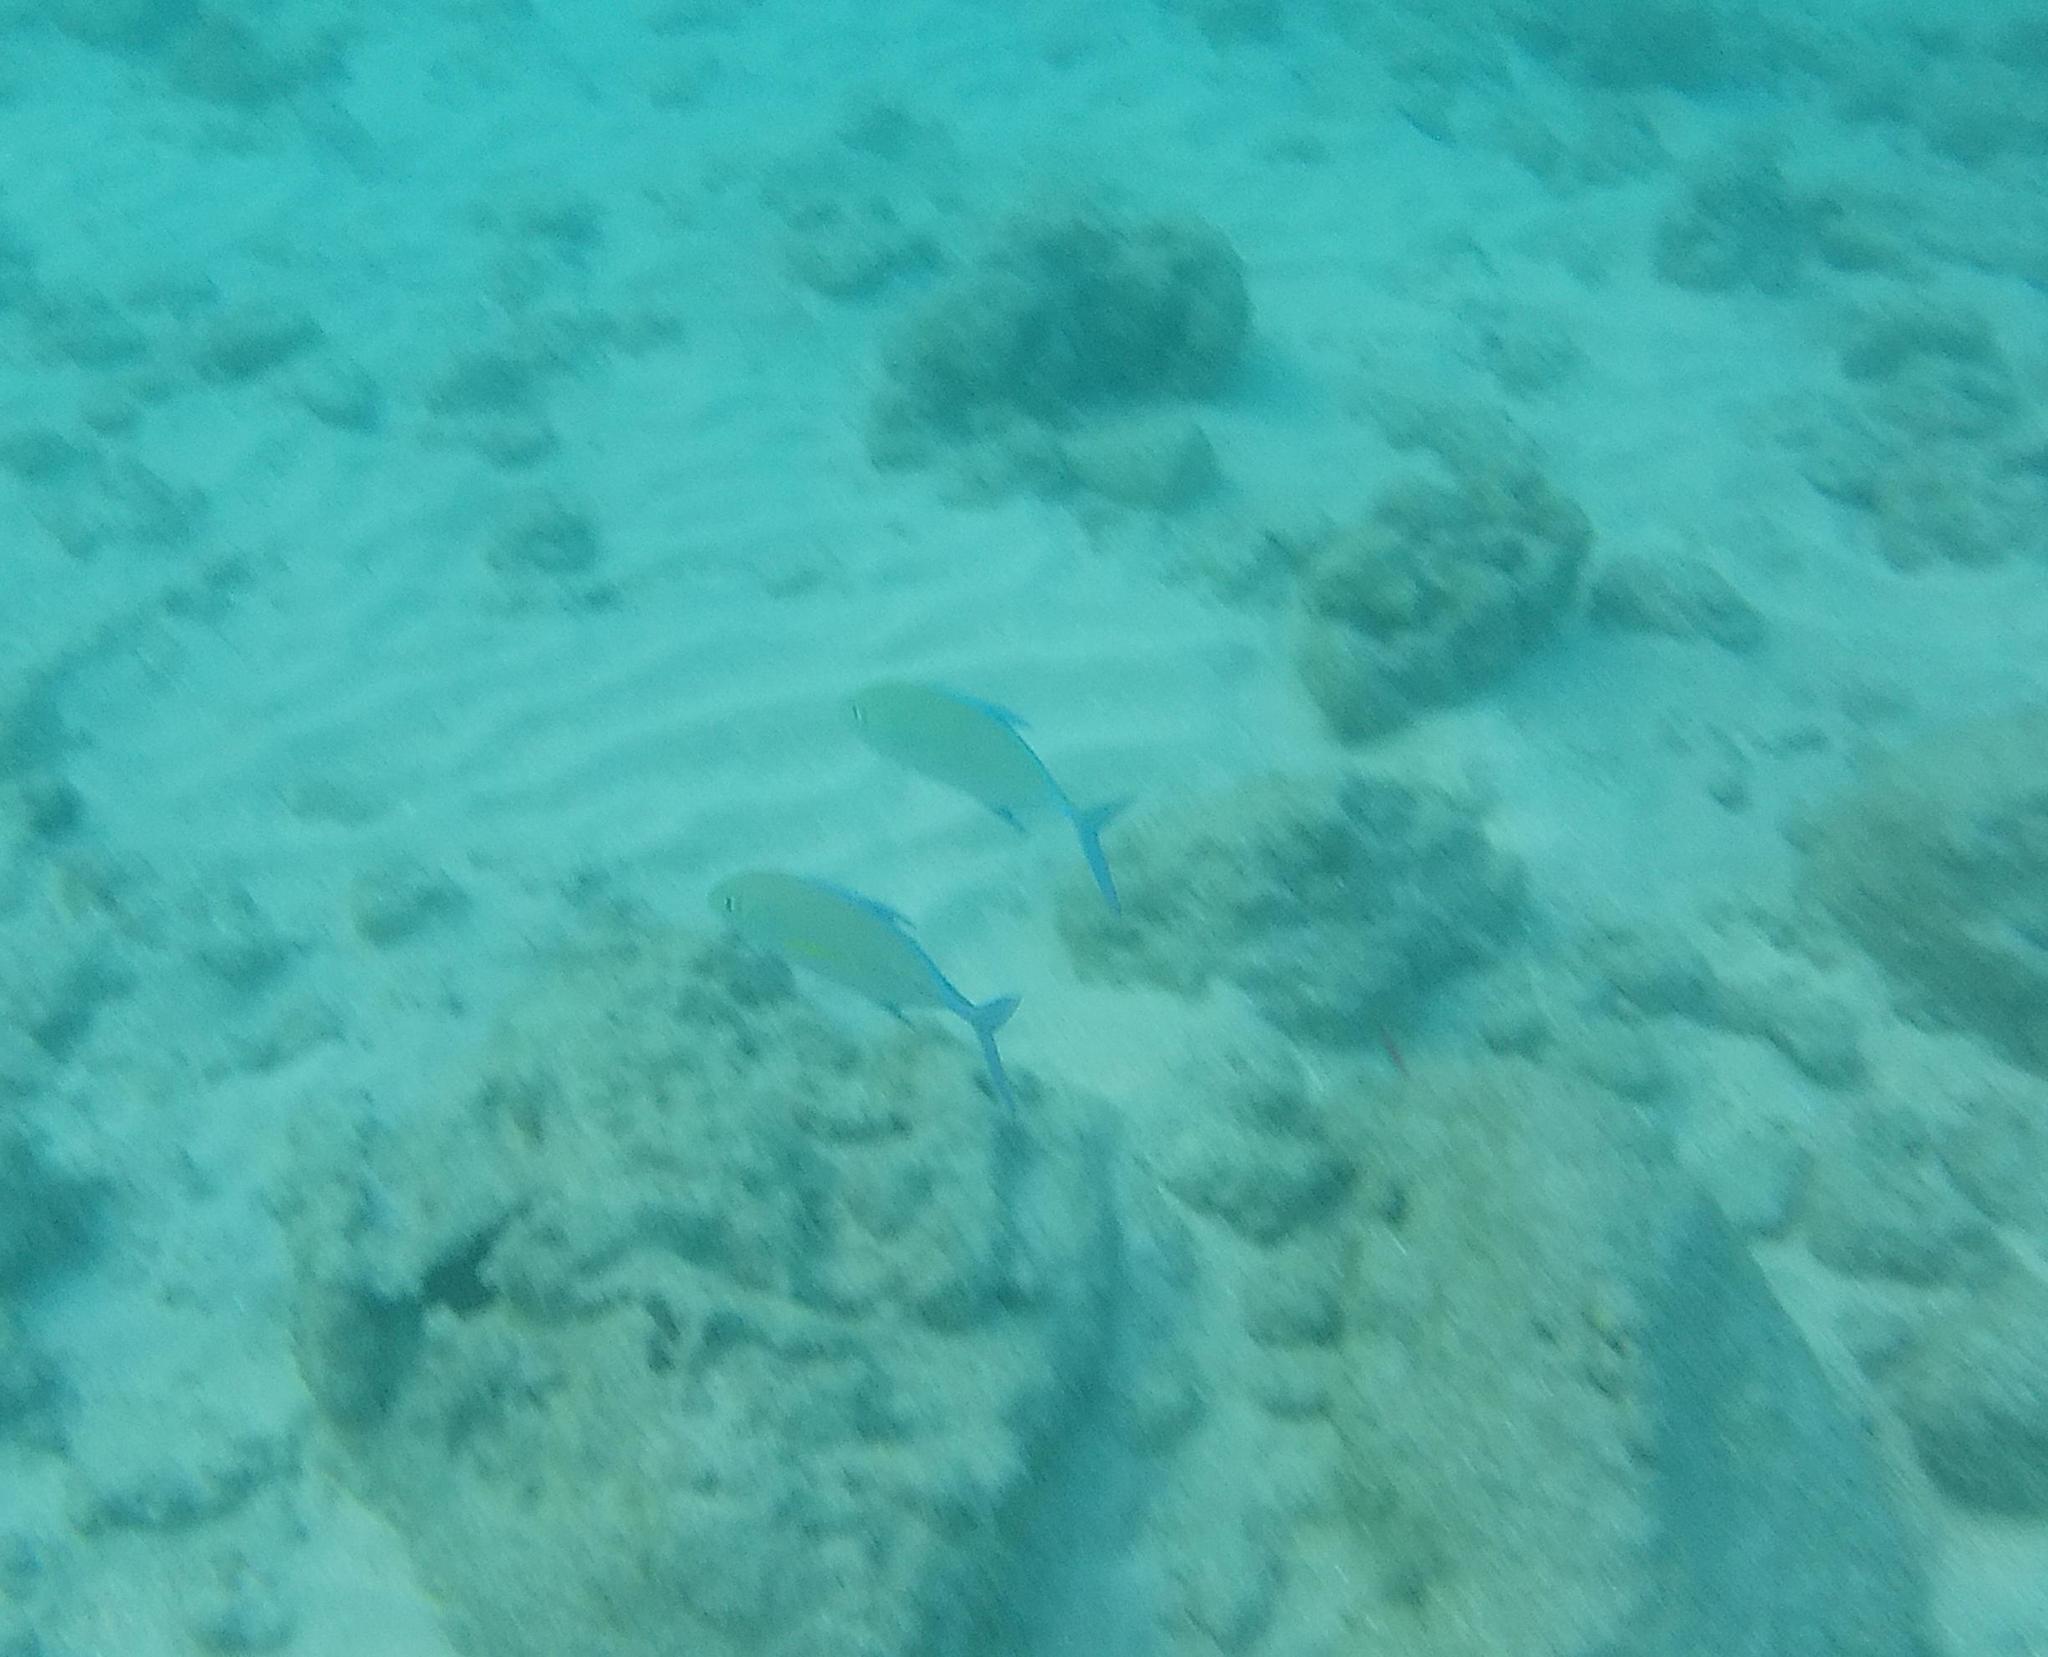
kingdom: Animalia
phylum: Chordata
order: Perciformes
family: Carangidae
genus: Caranx
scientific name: Caranx melampygus
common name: Bluefin trevally
